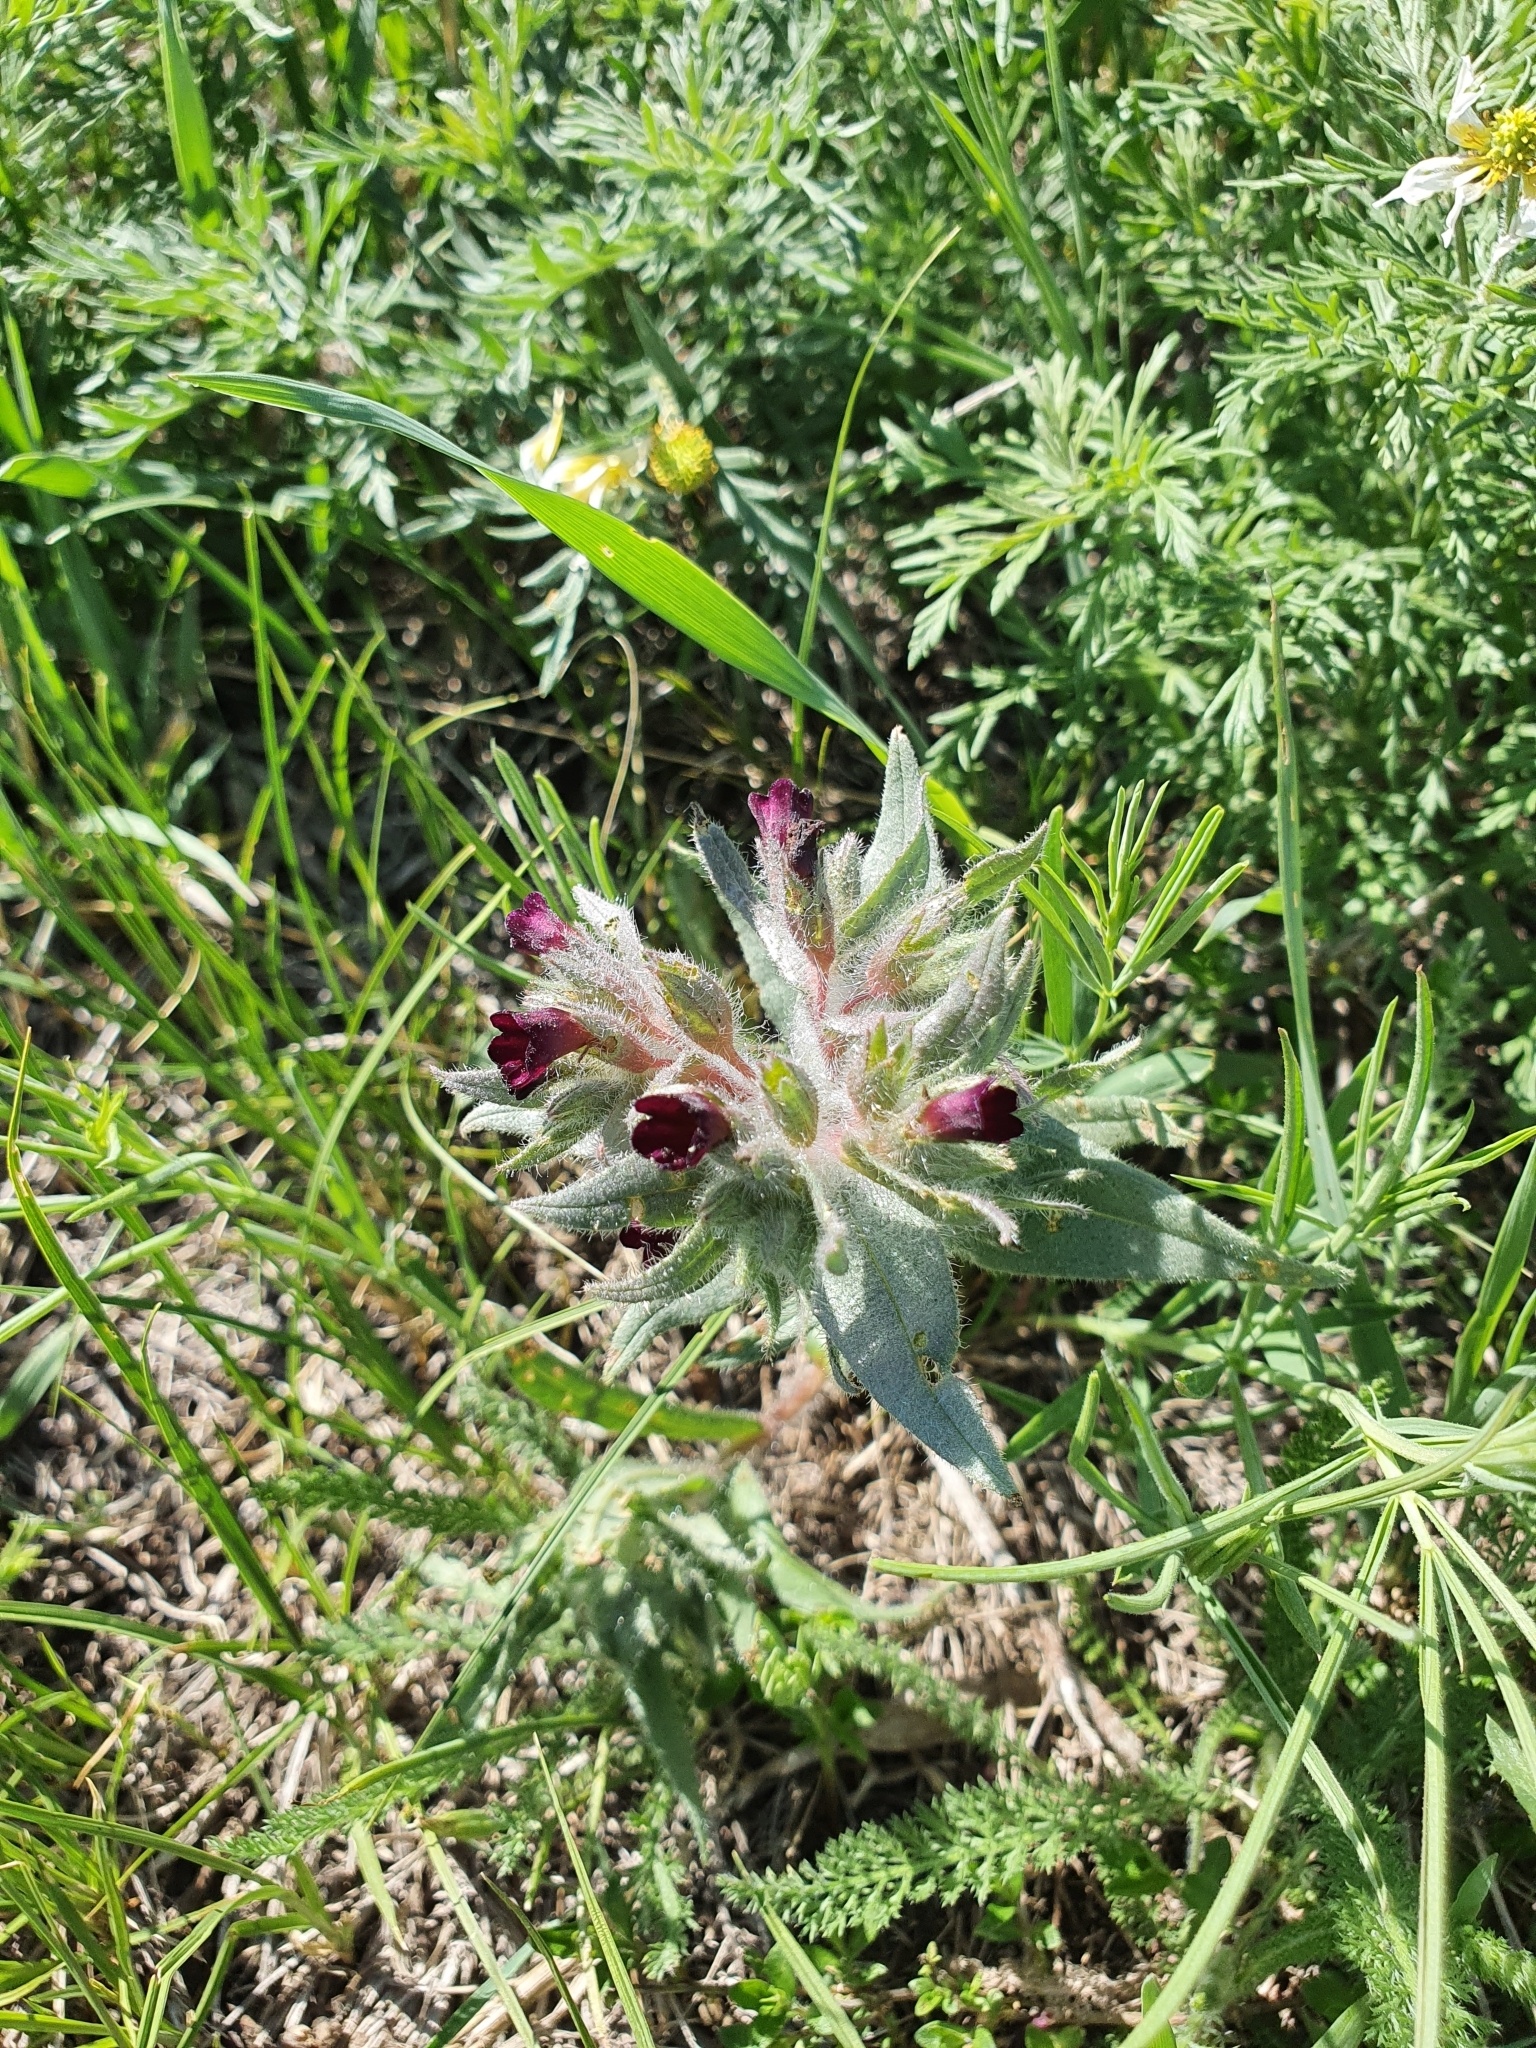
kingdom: Plantae
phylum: Tracheophyta
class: Magnoliopsida
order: Boraginales
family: Boraginaceae
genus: Nonea
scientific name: Nonea pulla
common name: Brown nonea
